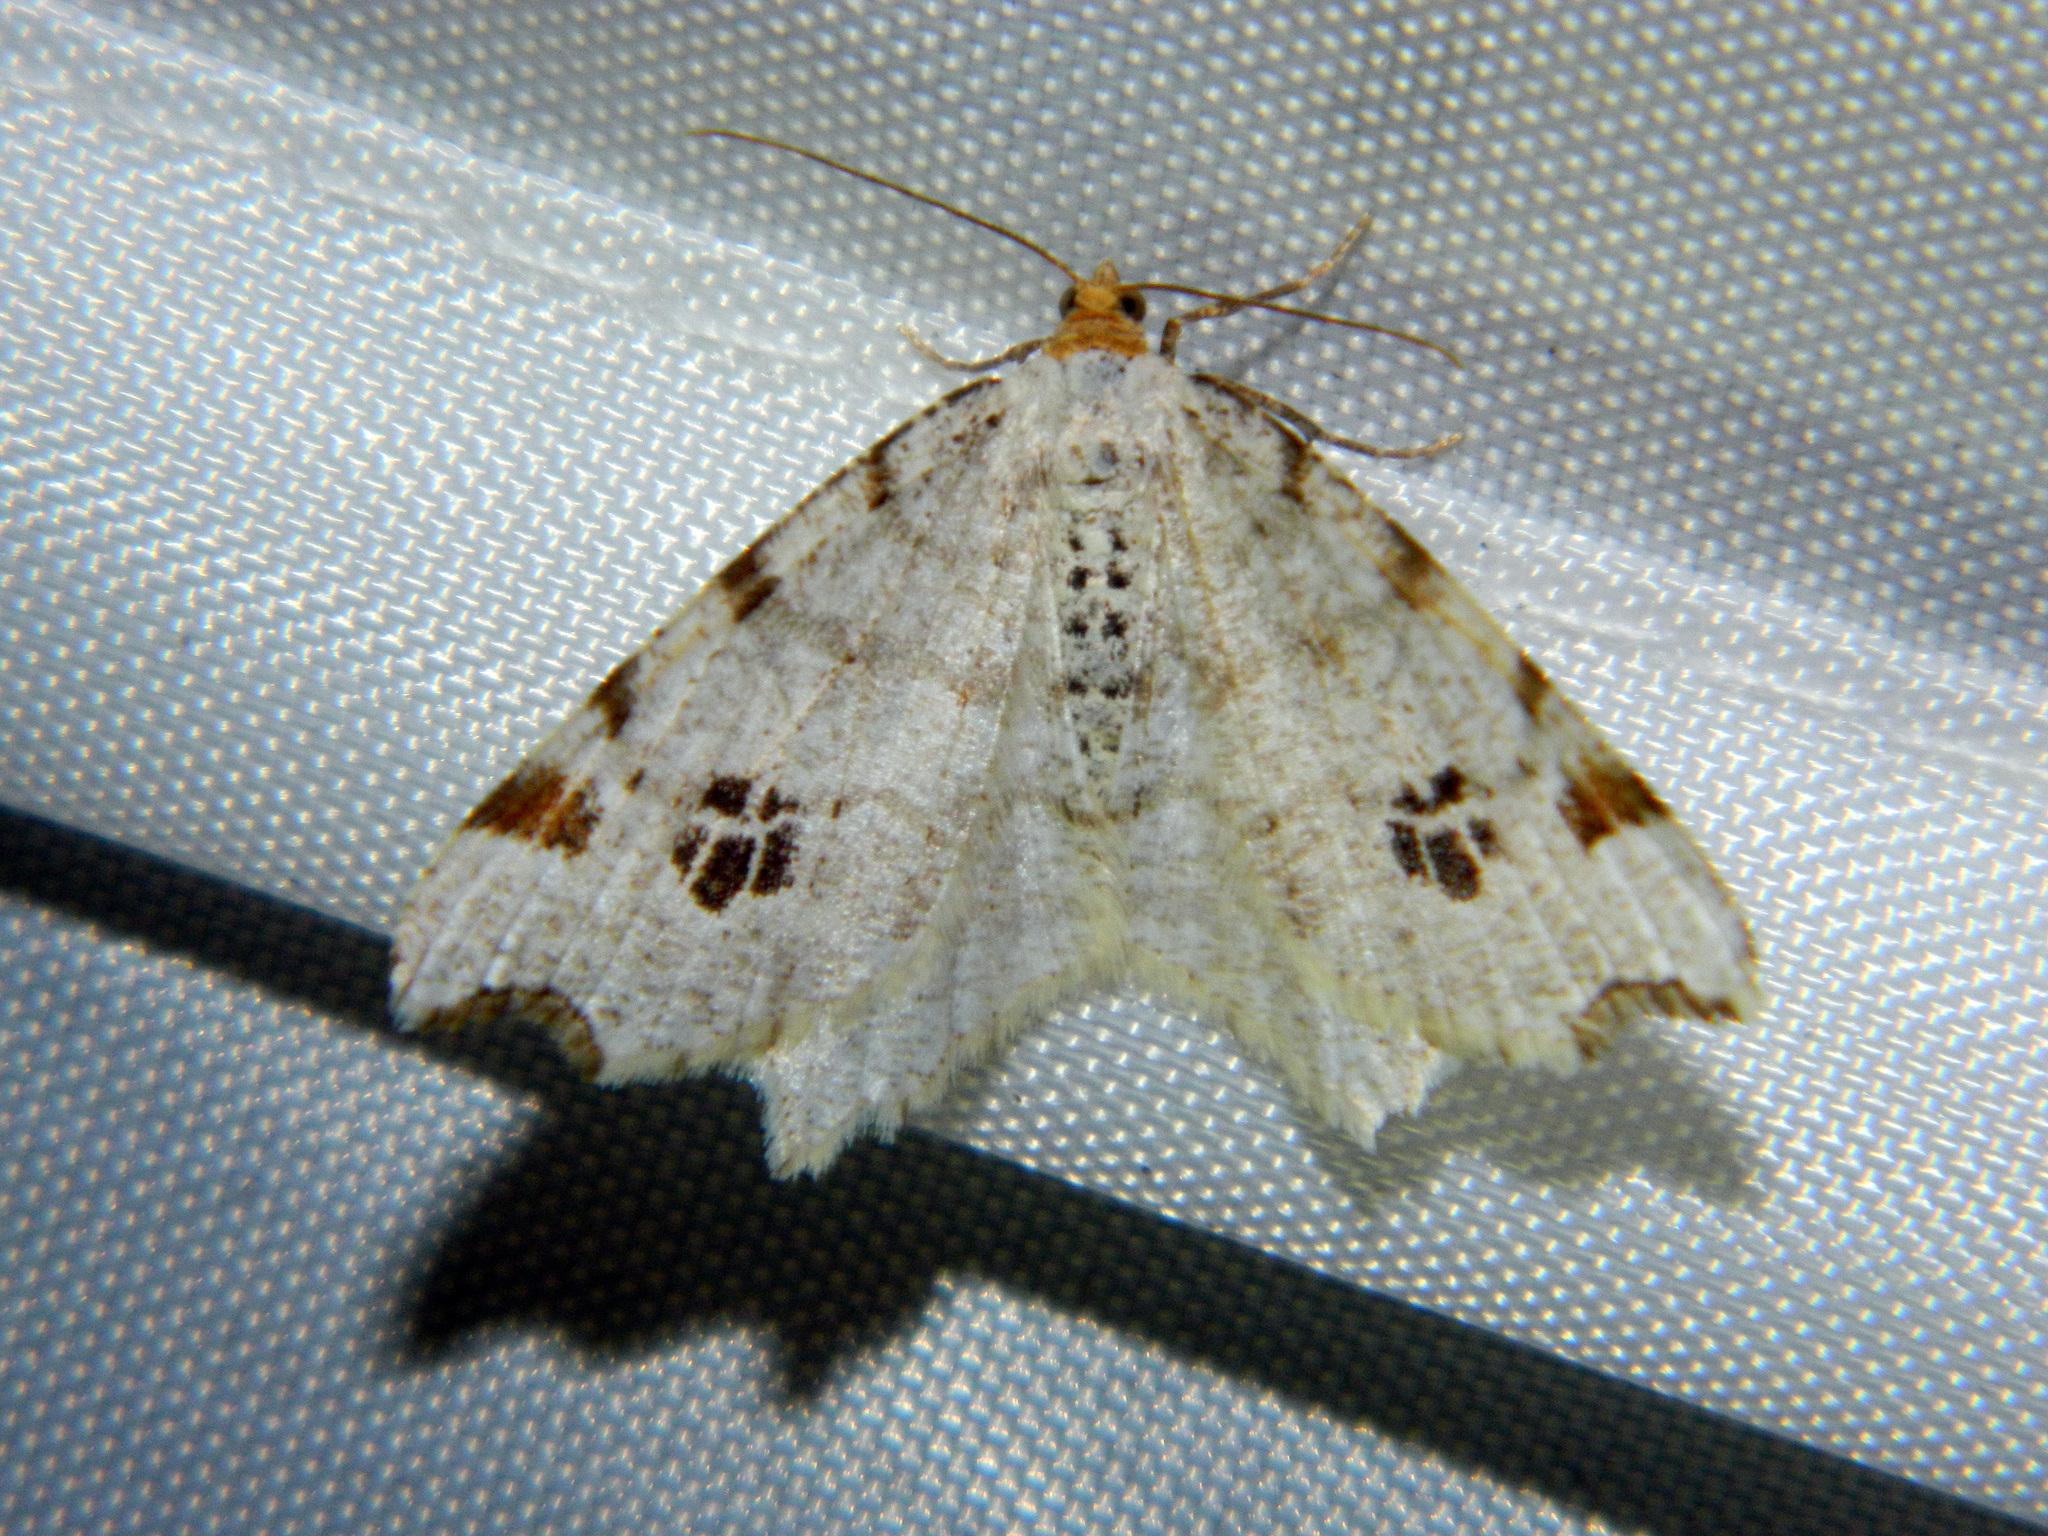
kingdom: Animalia
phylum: Arthropoda
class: Insecta
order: Lepidoptera
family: Geometridae
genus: Macaria
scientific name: Macaria ulsterata
